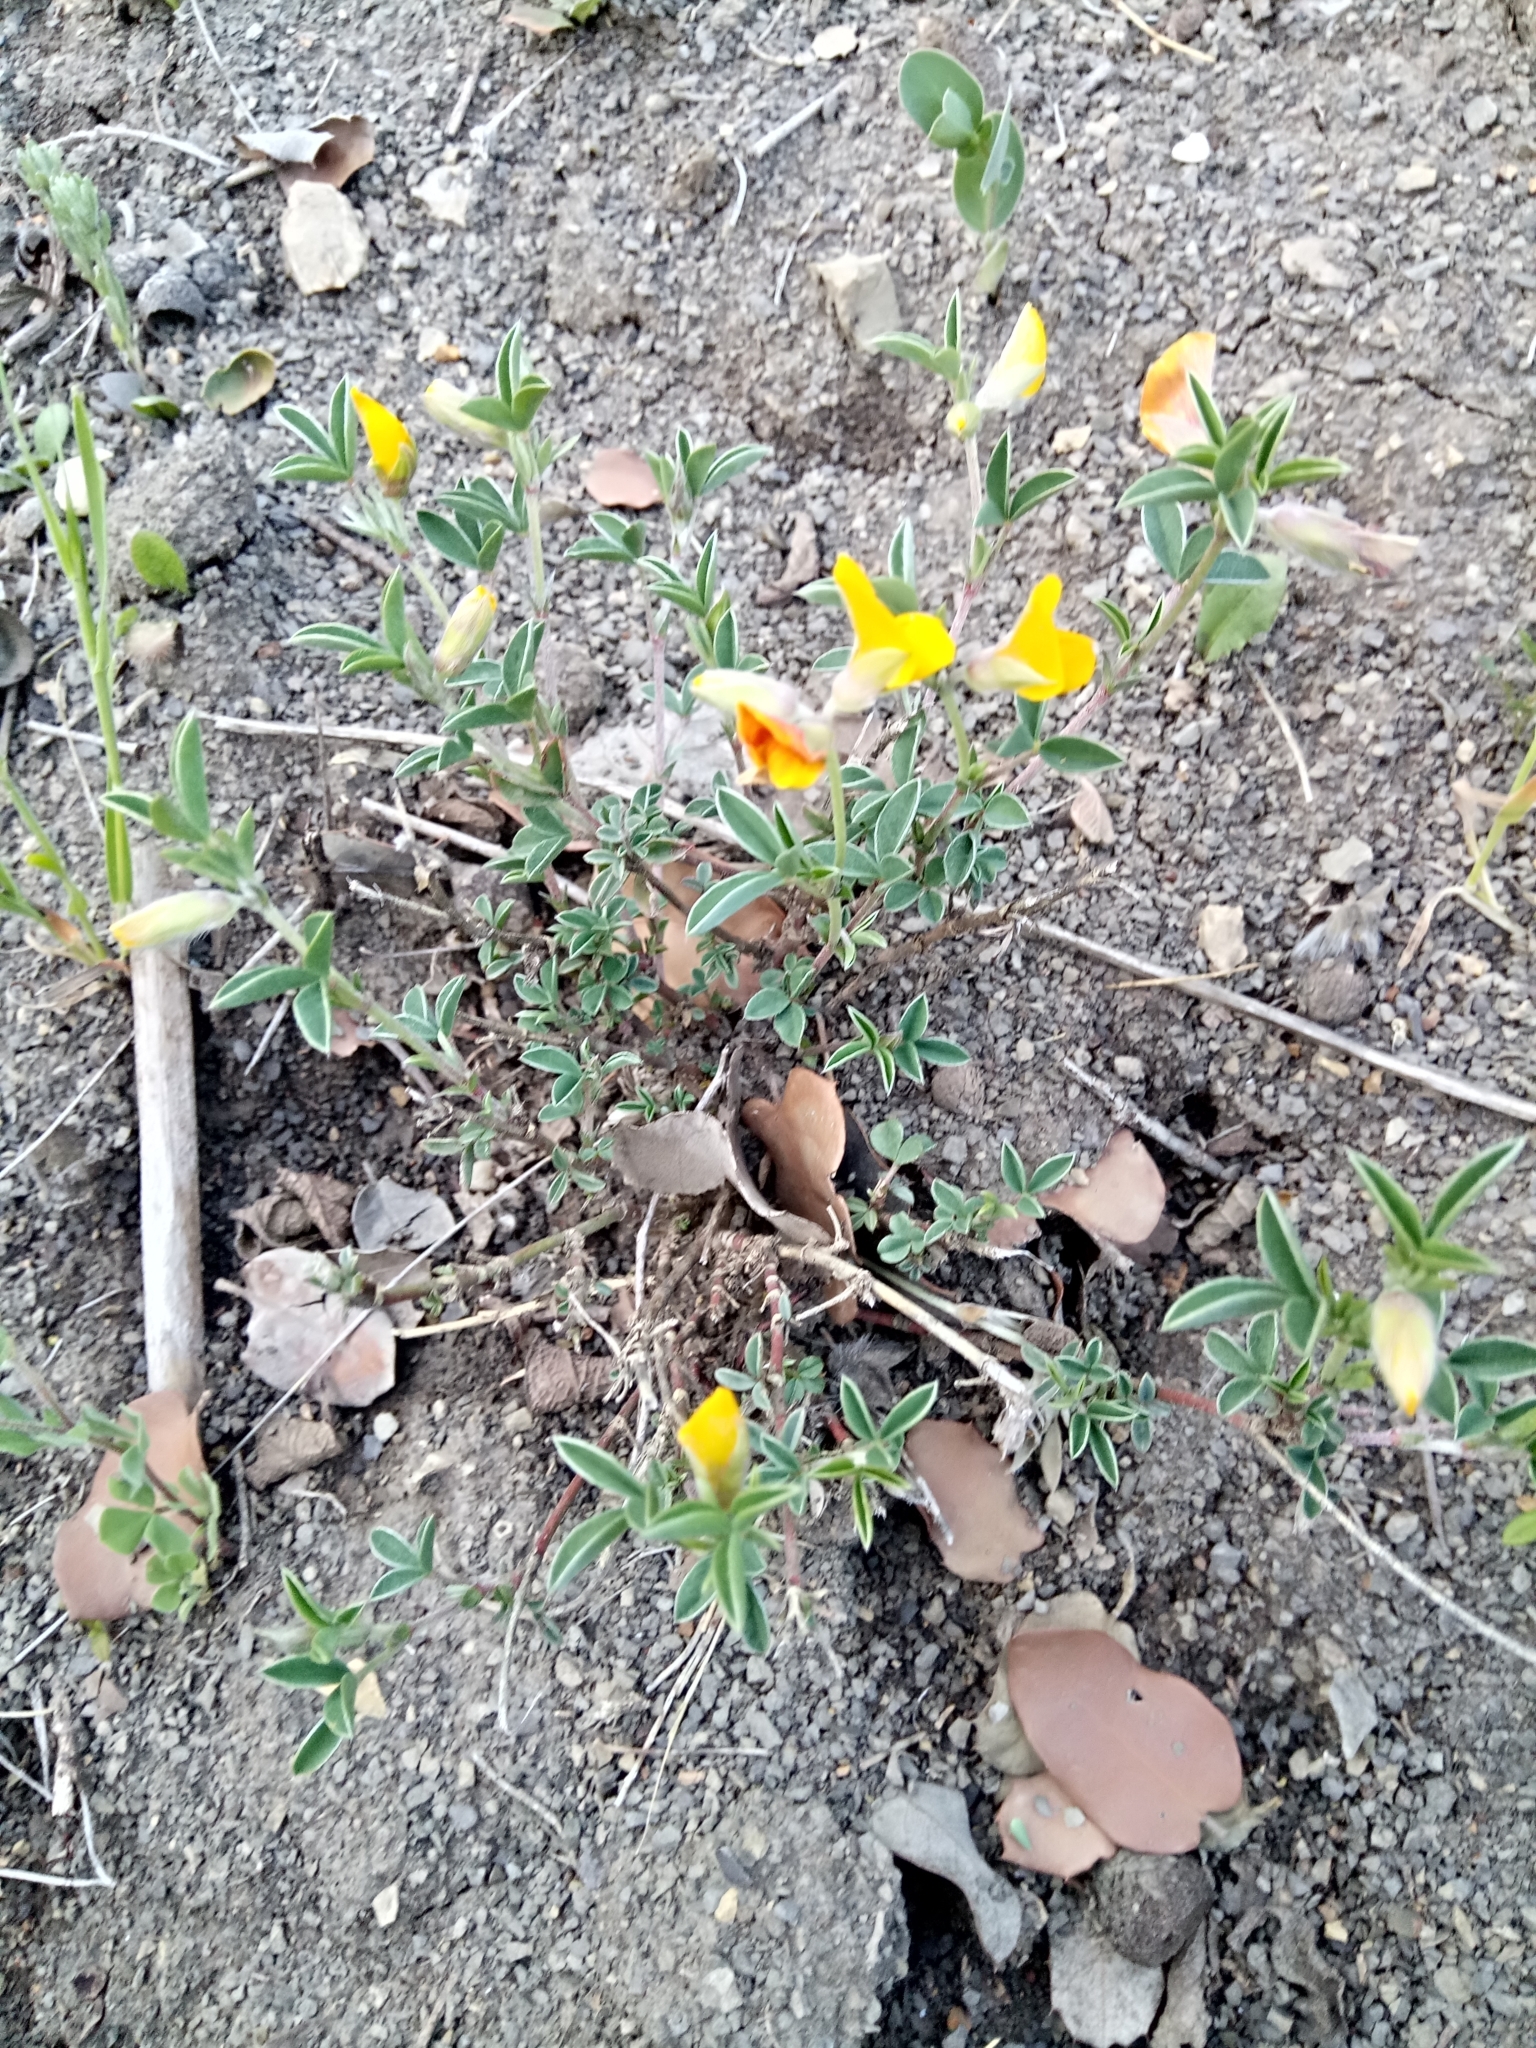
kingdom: Plantae
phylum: Tracheophyta
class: Magnoliopsida
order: Fabales
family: Fabaceae
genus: Argyrolobium
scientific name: Argyrolobium zanonii
